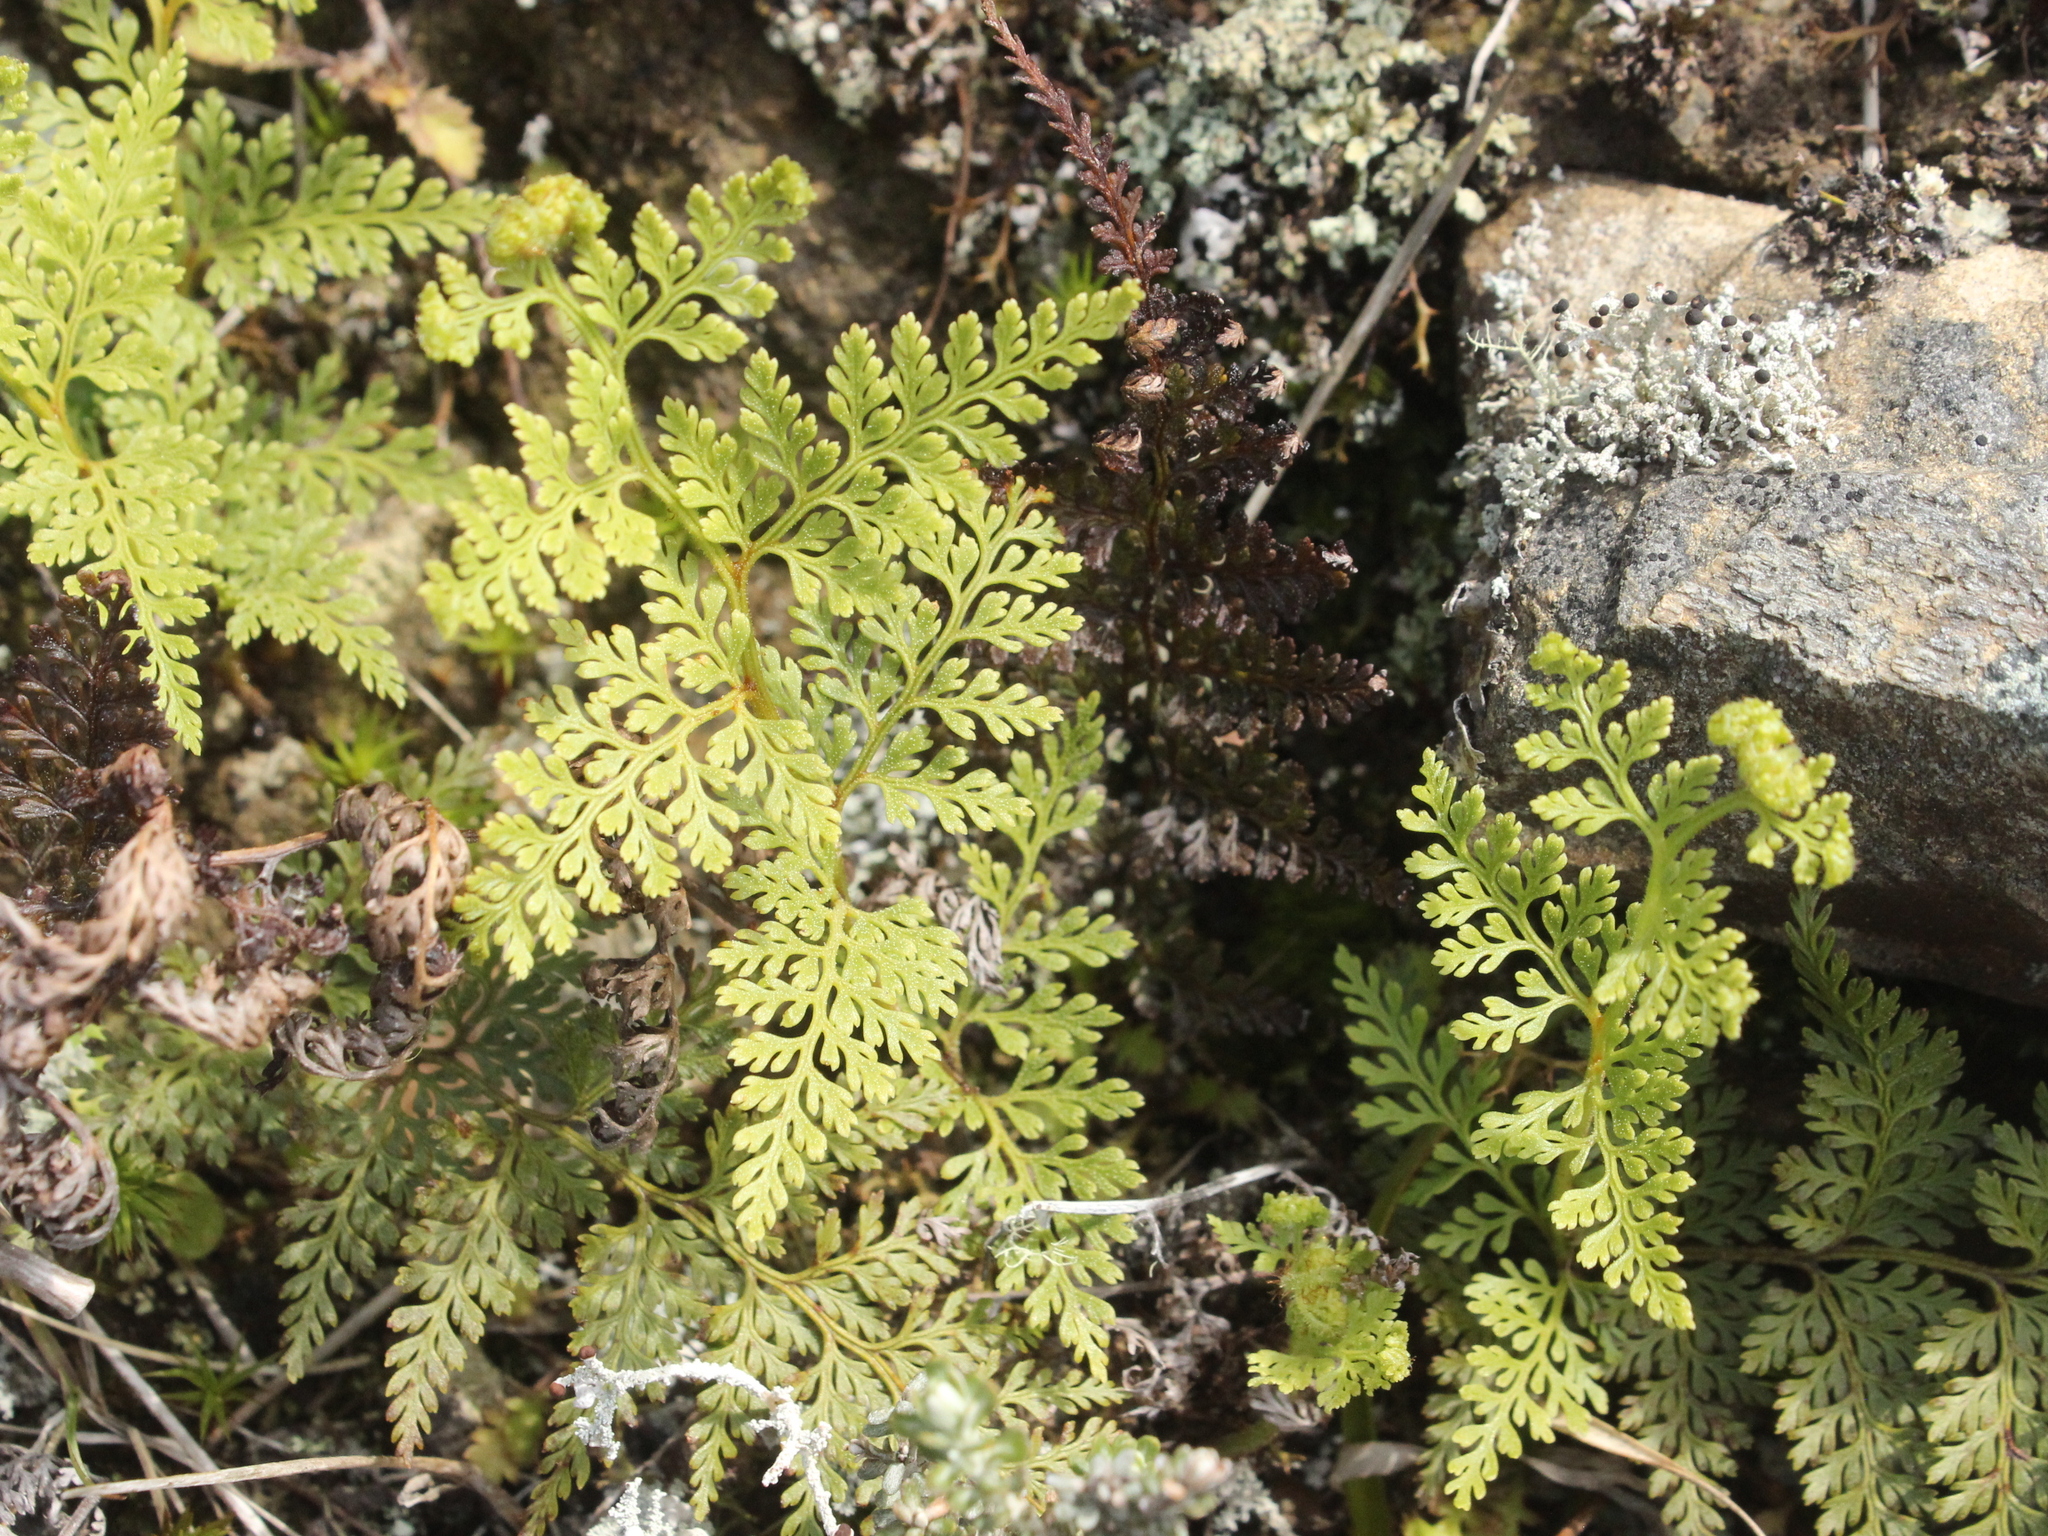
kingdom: Plantae
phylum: Tracheophyta
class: Polypodiopsida
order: Polypodiales
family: Dennstaedtiaceae
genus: Paesia
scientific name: Paesia scaberula
